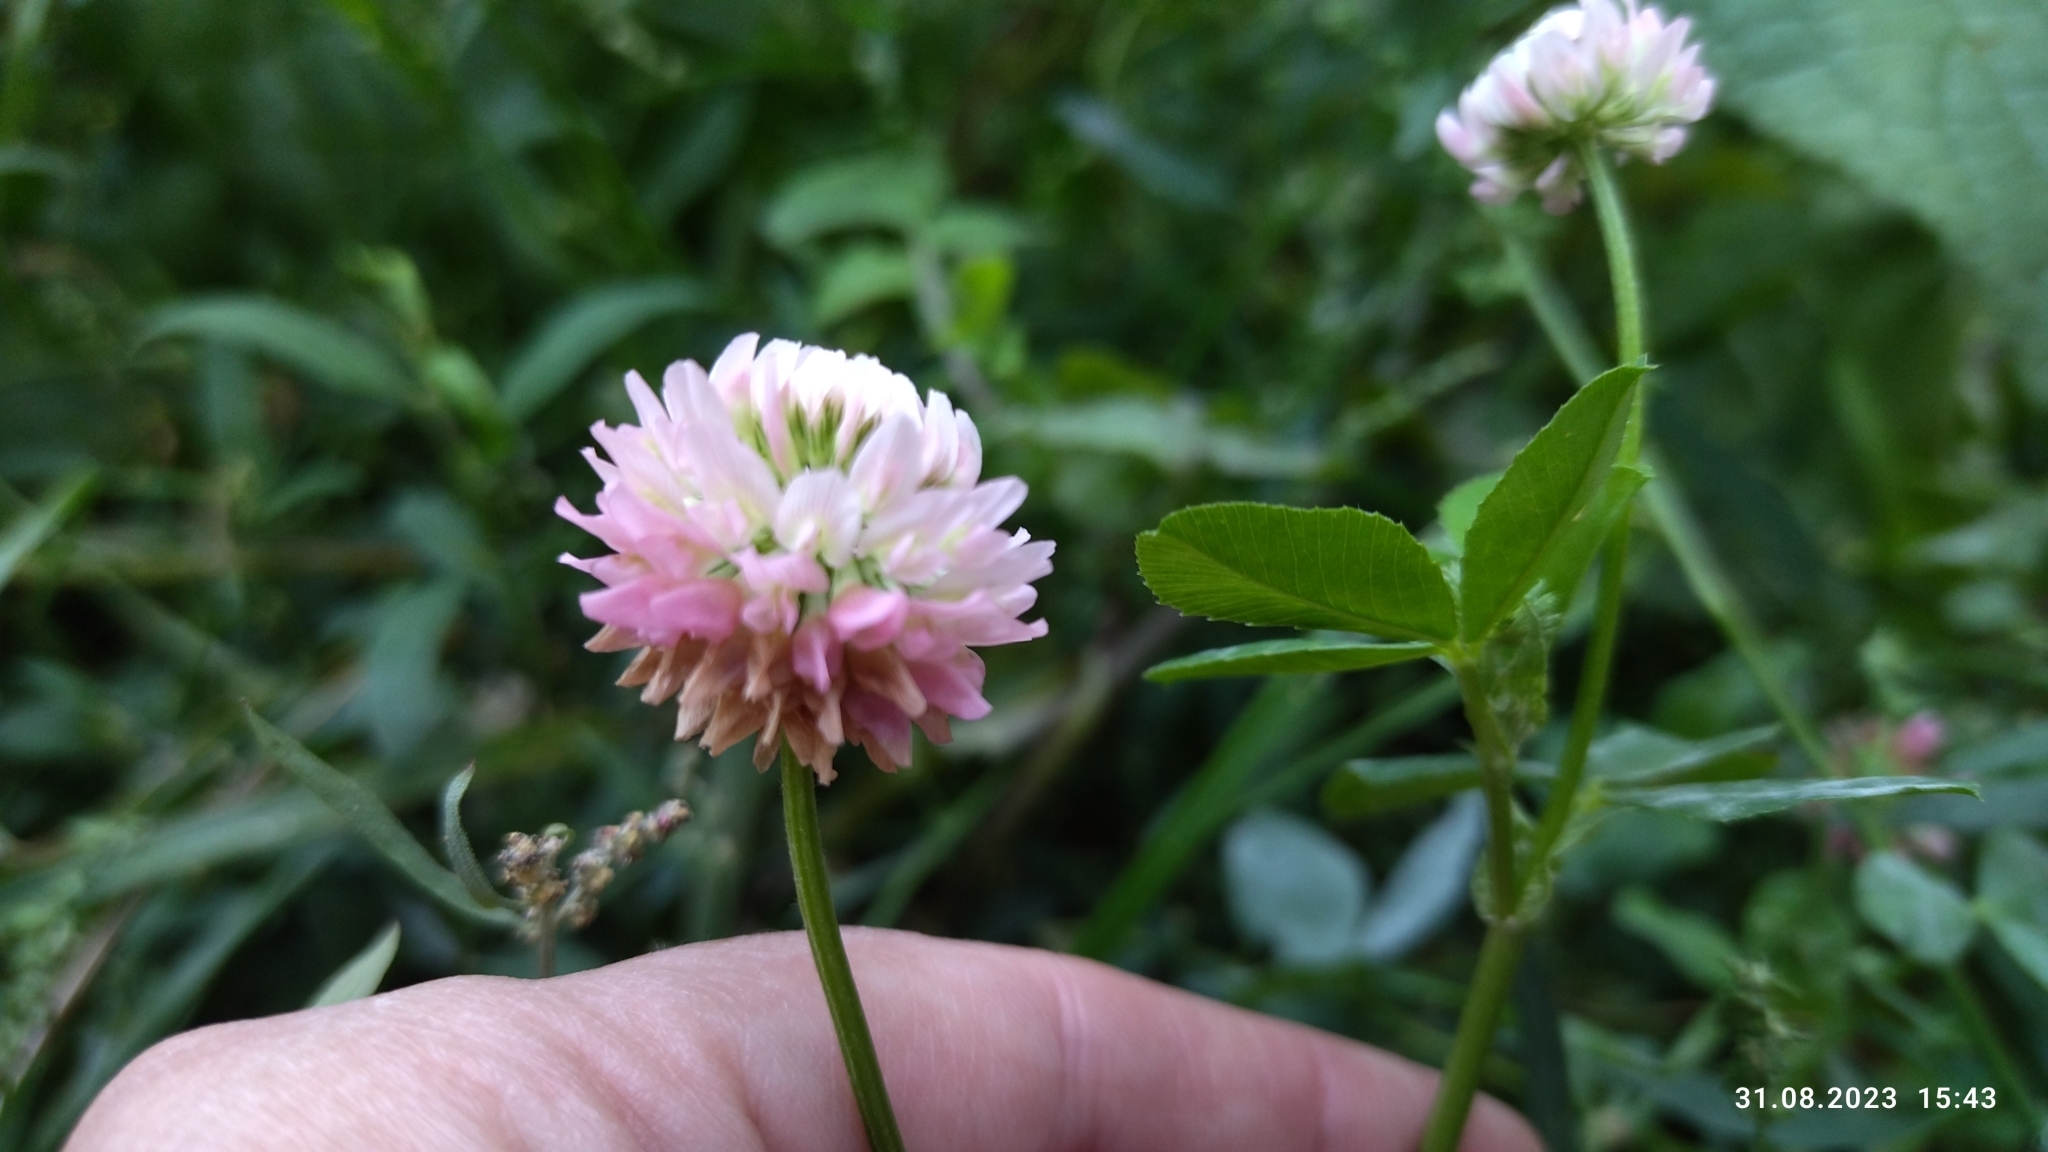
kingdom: Plantae
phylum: Tracheophyta
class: Magnoliopsida
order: Fabales
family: Fabaceae
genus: Trifolium
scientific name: Trifolium hybridum
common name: Alsike clover
